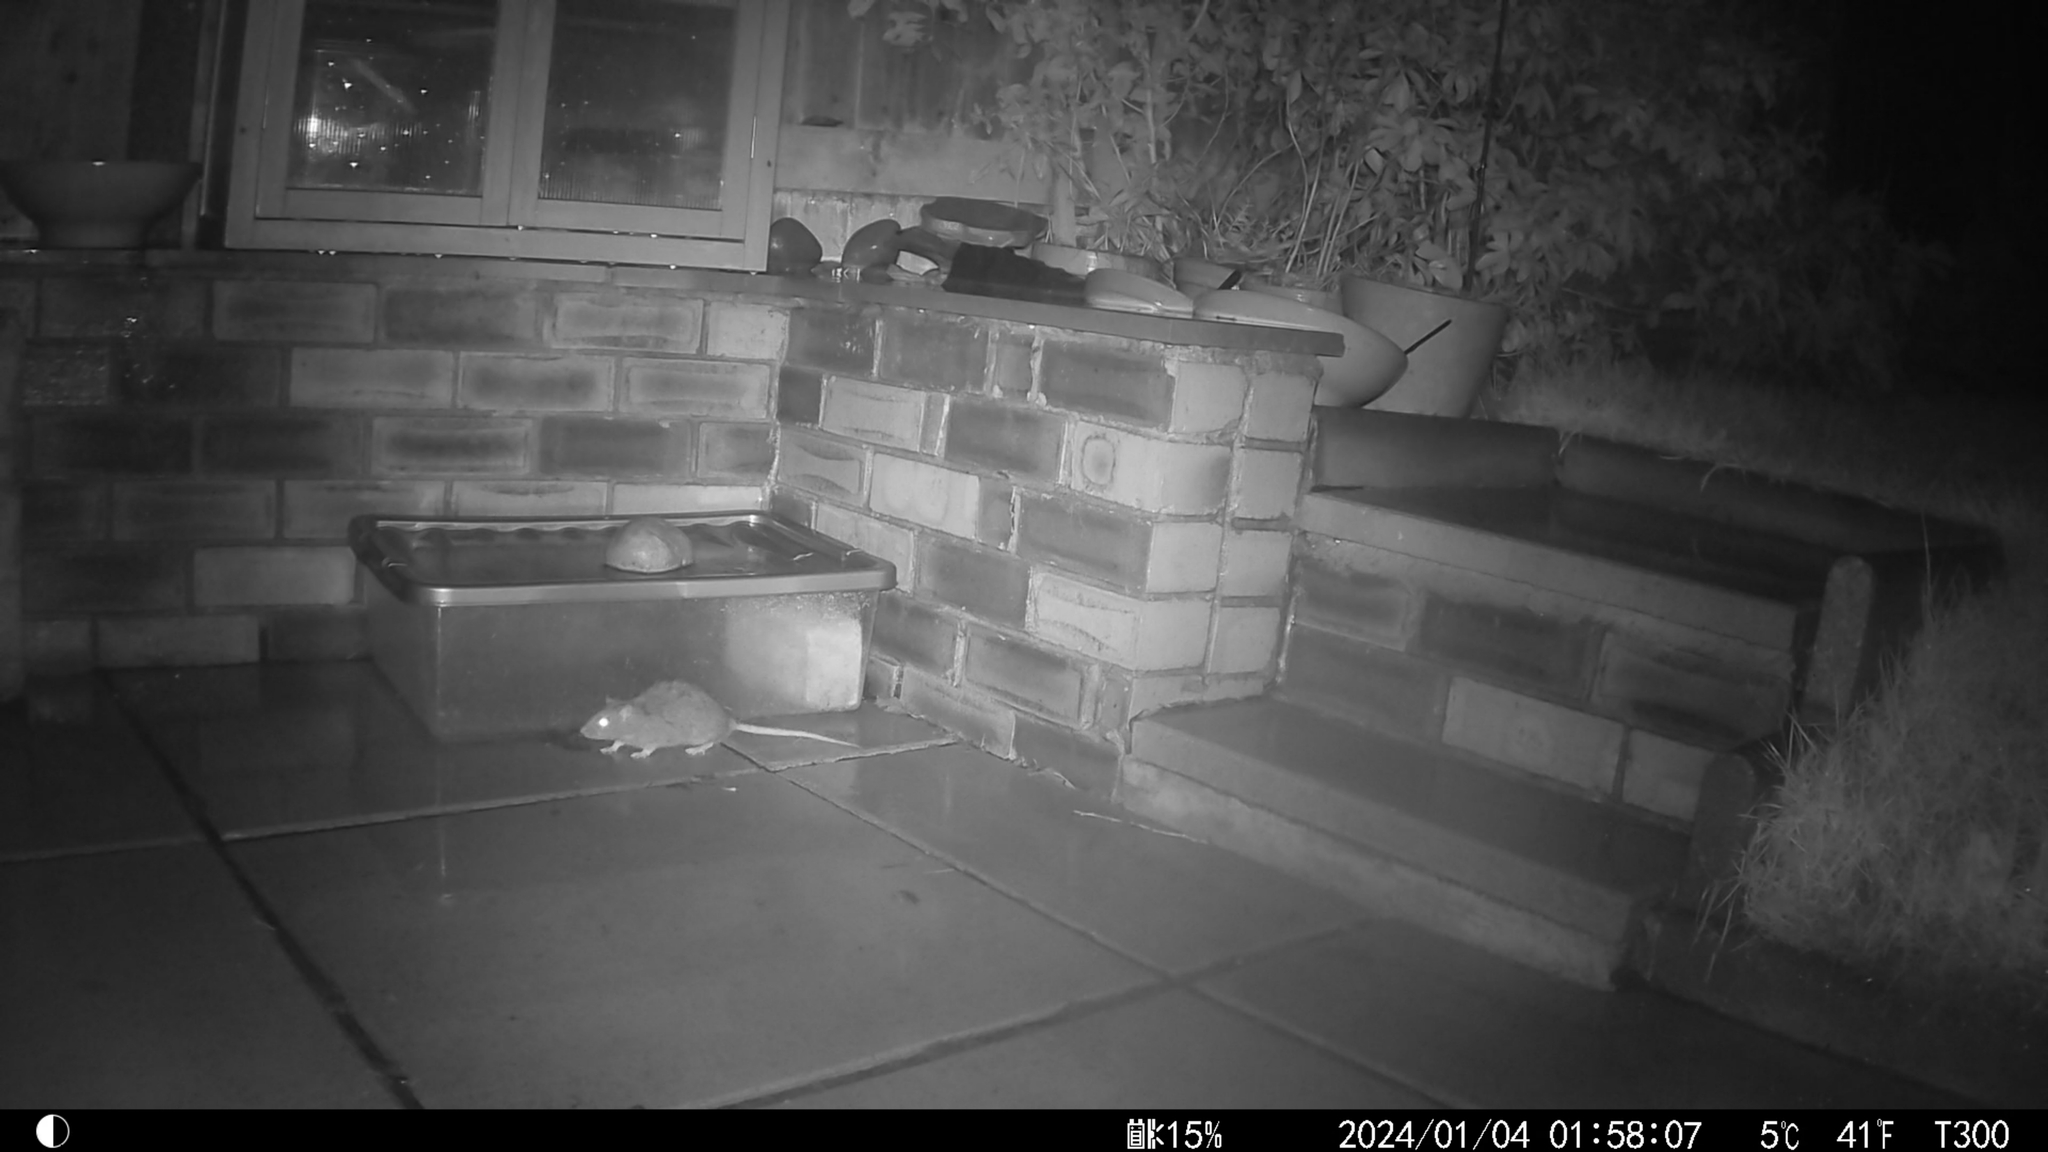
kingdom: Animalia
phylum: Chordata
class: Mammalia
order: Rodentia
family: Muridae
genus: Rattus
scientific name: Rattus norvegicus
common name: Brown rat
